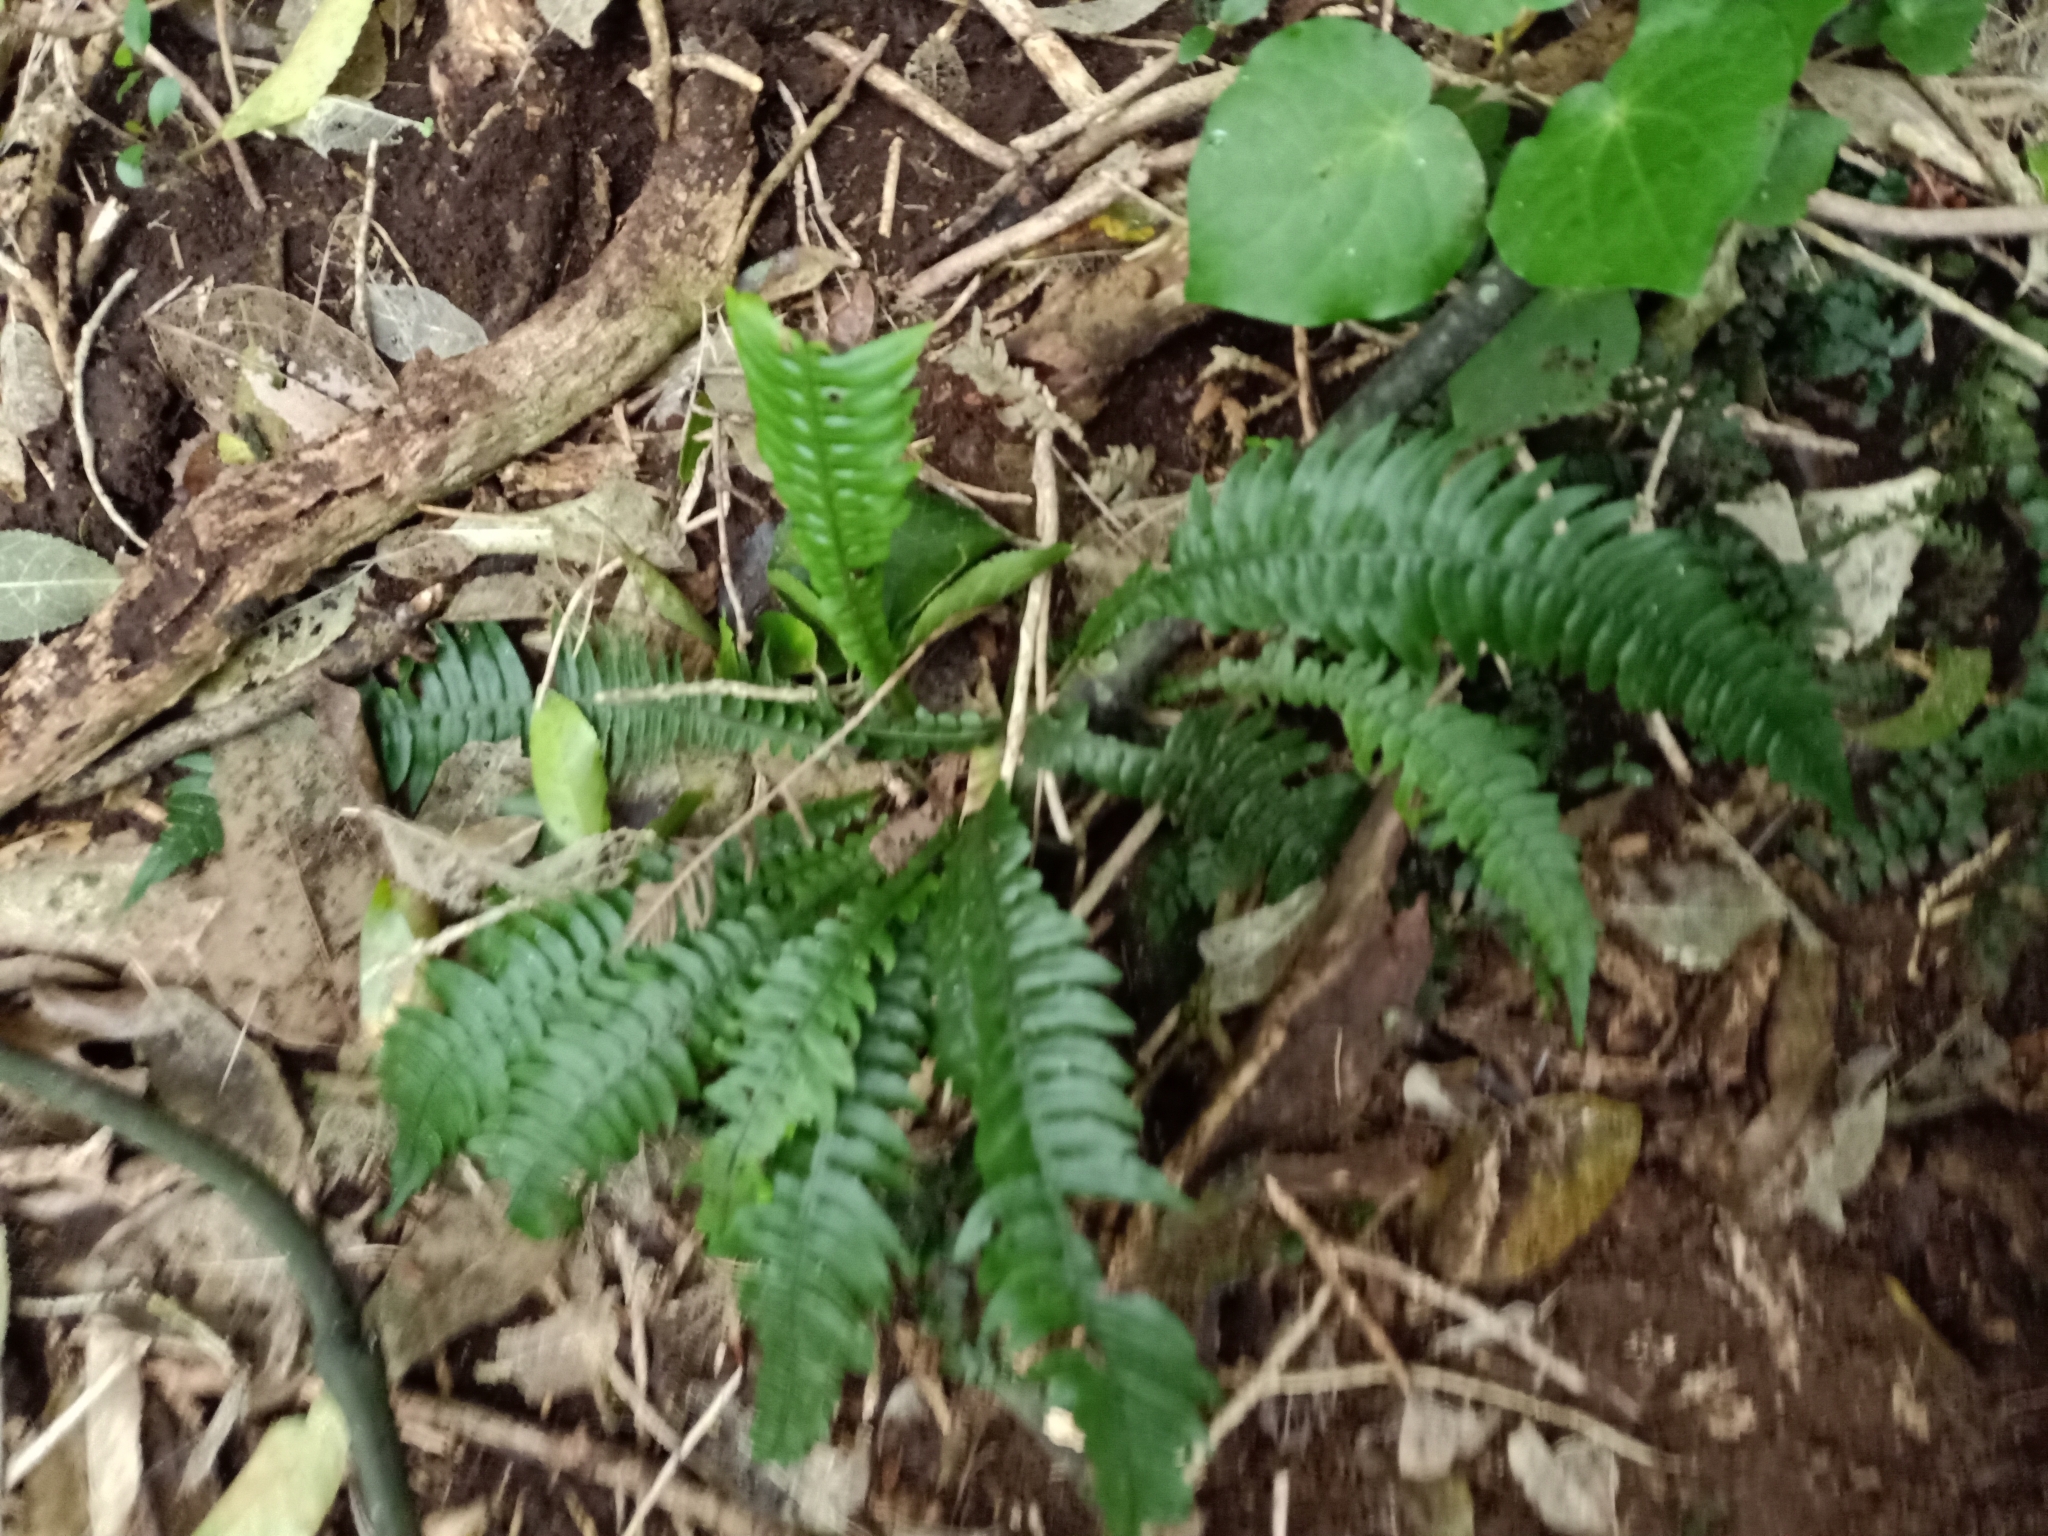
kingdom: Plantae
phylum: Tracheophyta
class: Polypodiopsida
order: Polypodiales
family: Blechnaceae
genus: Austroblechnum
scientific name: Austroblechnum lanceolatum
